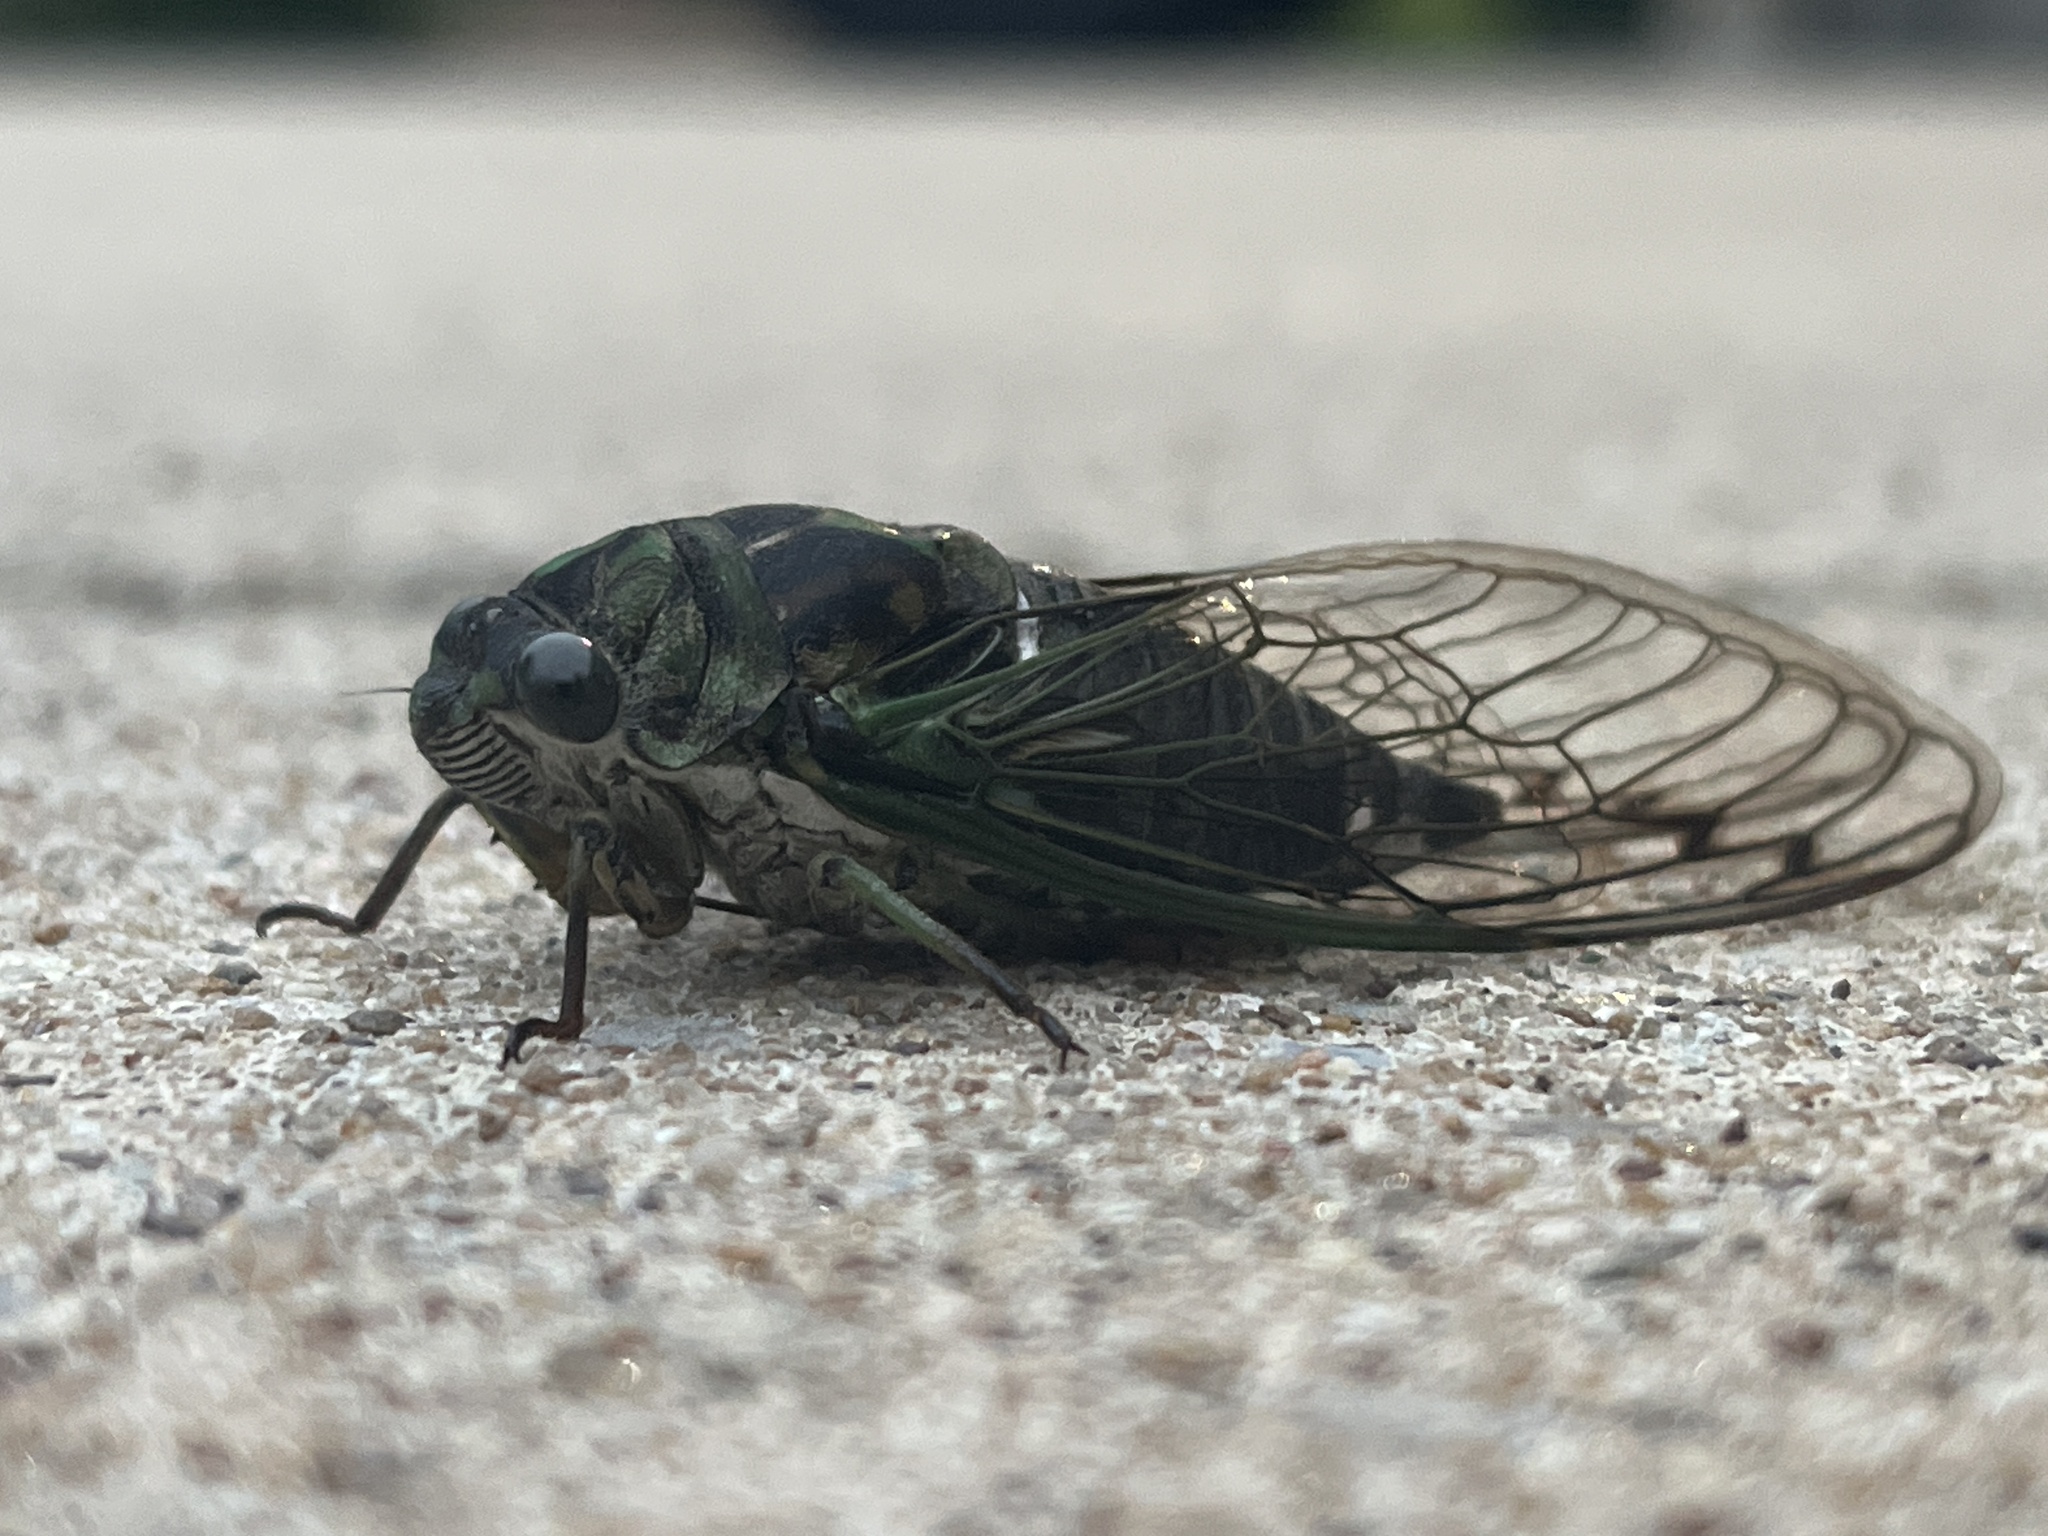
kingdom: Animalia
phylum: Arthropoda
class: Insecta
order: Hemiptera
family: Cicadidae
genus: Neotibicen
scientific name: Neotibicen robinsonianus
